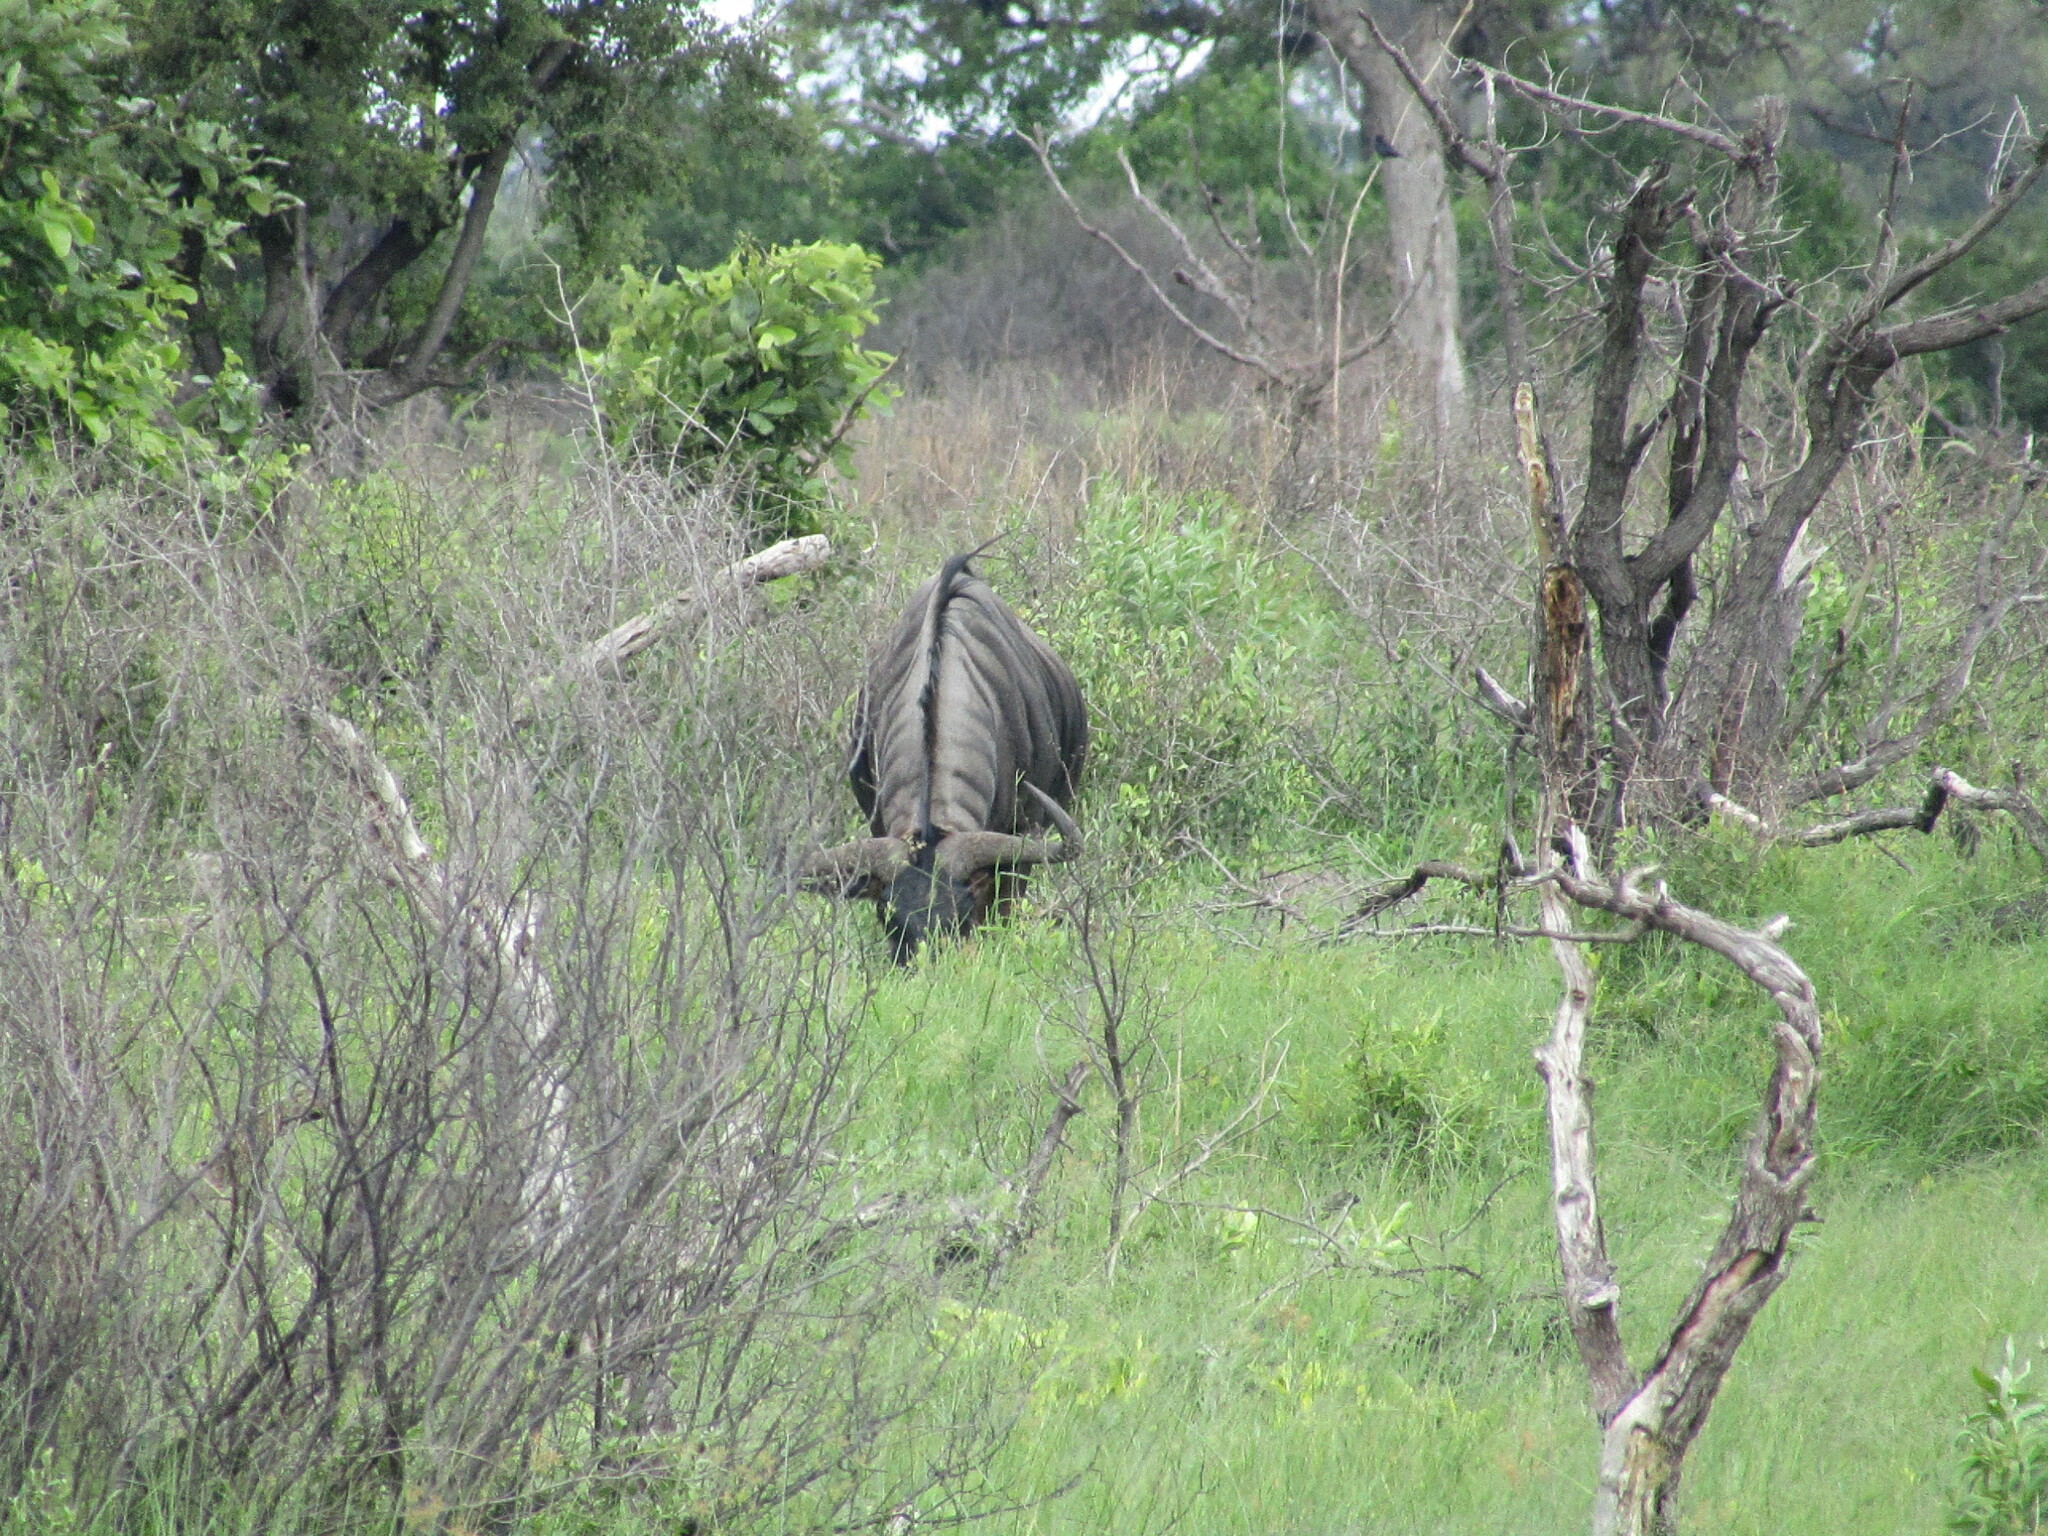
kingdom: Animalia
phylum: Chordata
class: Mammalia
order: Artiodactyla
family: Bovidae
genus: Connochaetes
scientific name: Connochaetes taurinus
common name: Blue wildebeest
